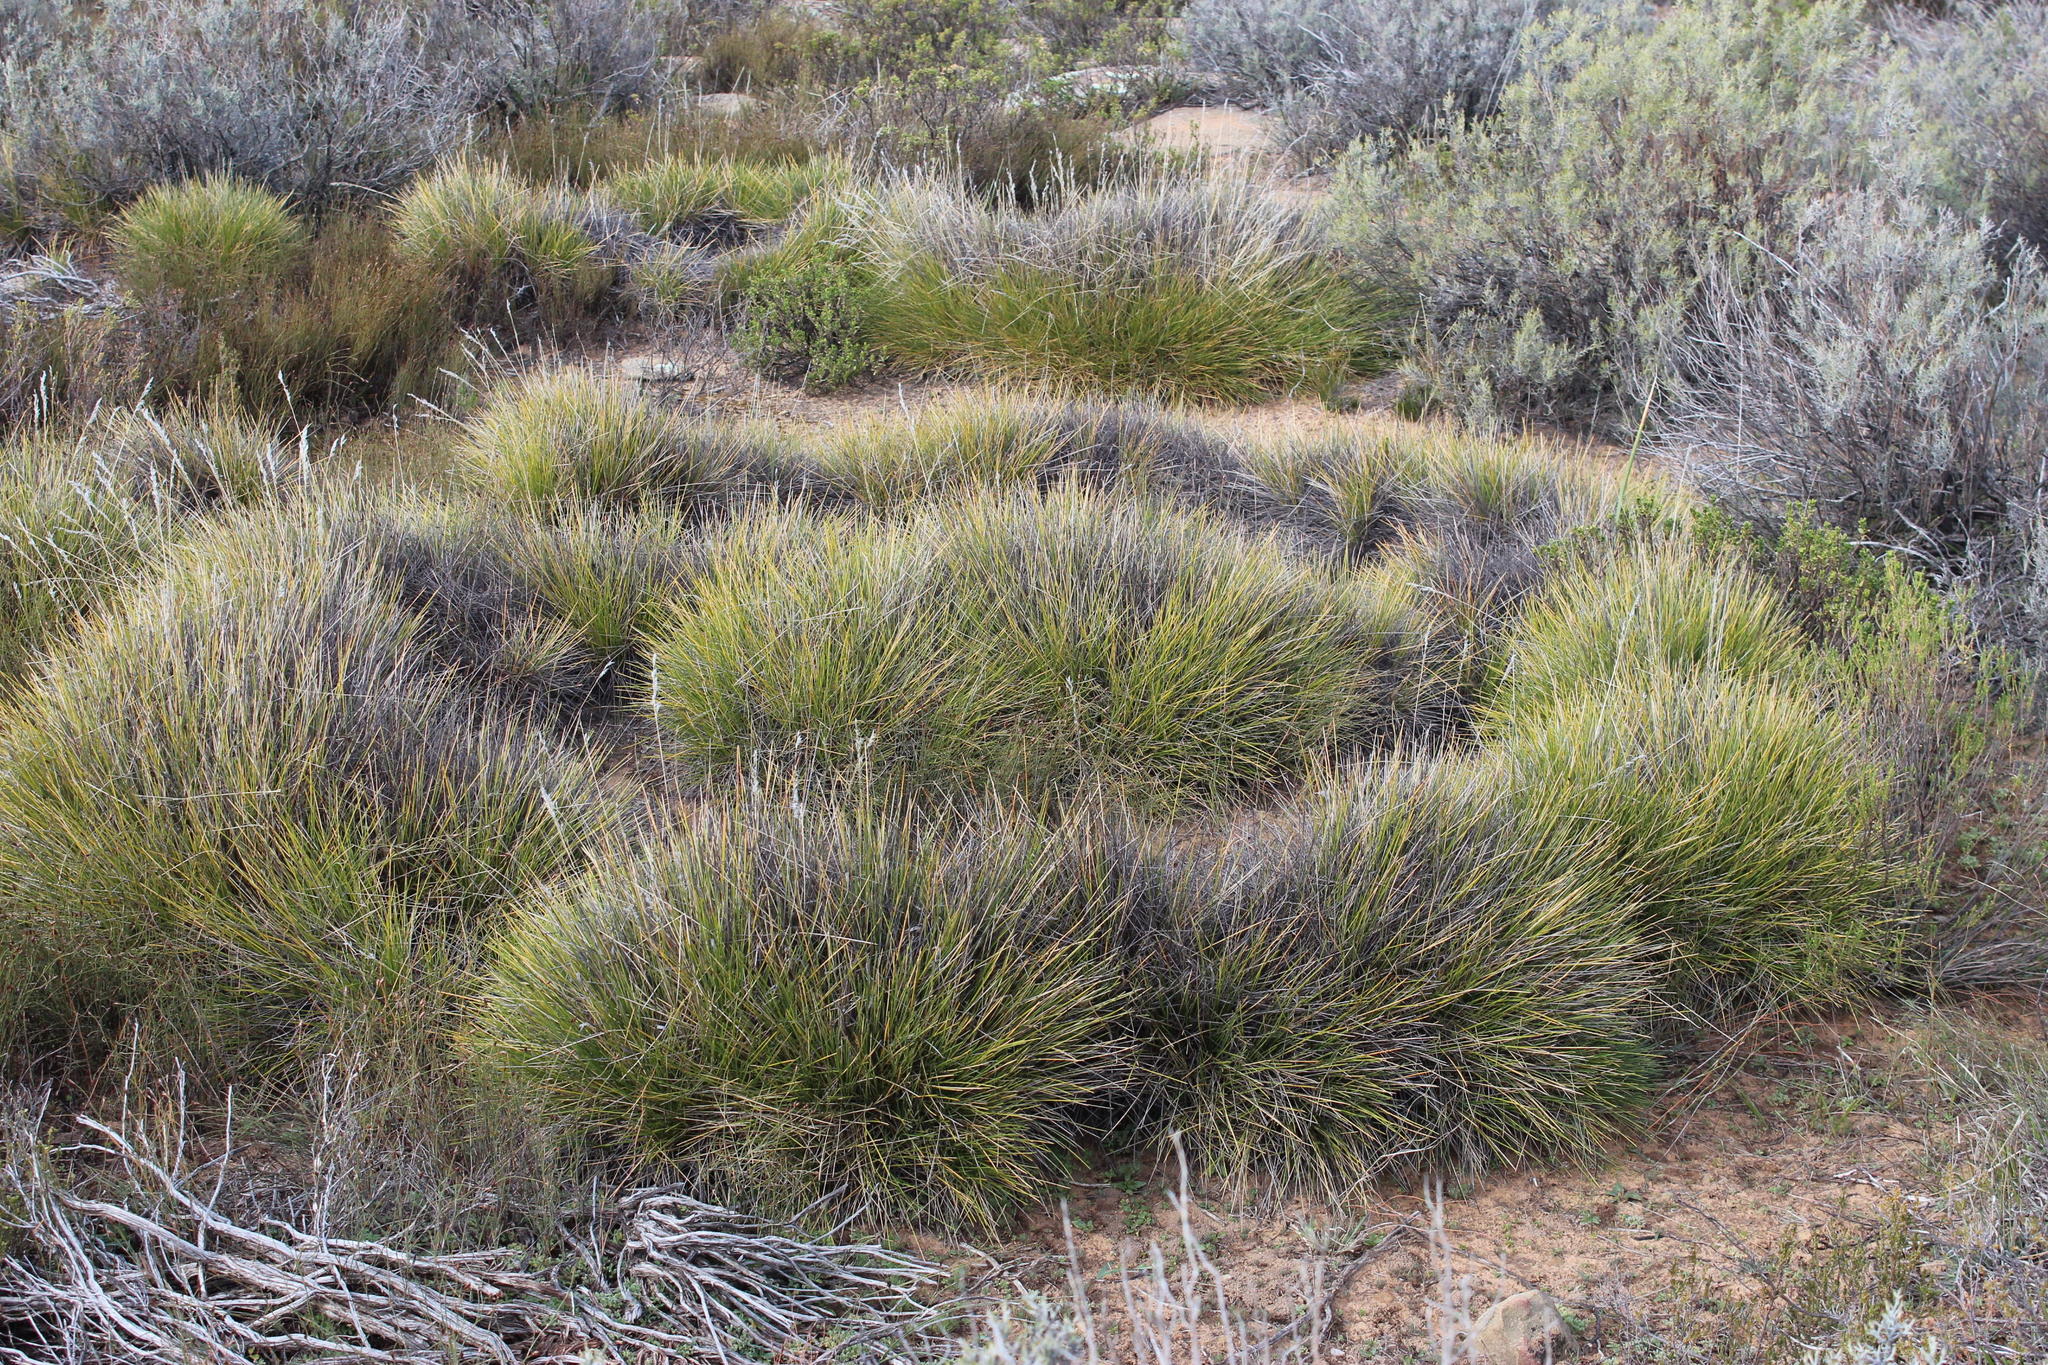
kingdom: Plantae
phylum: Tracheophyta
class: Liliopsida
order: Poales
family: Poaceae
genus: Pentameris
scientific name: Pentameris horrida
